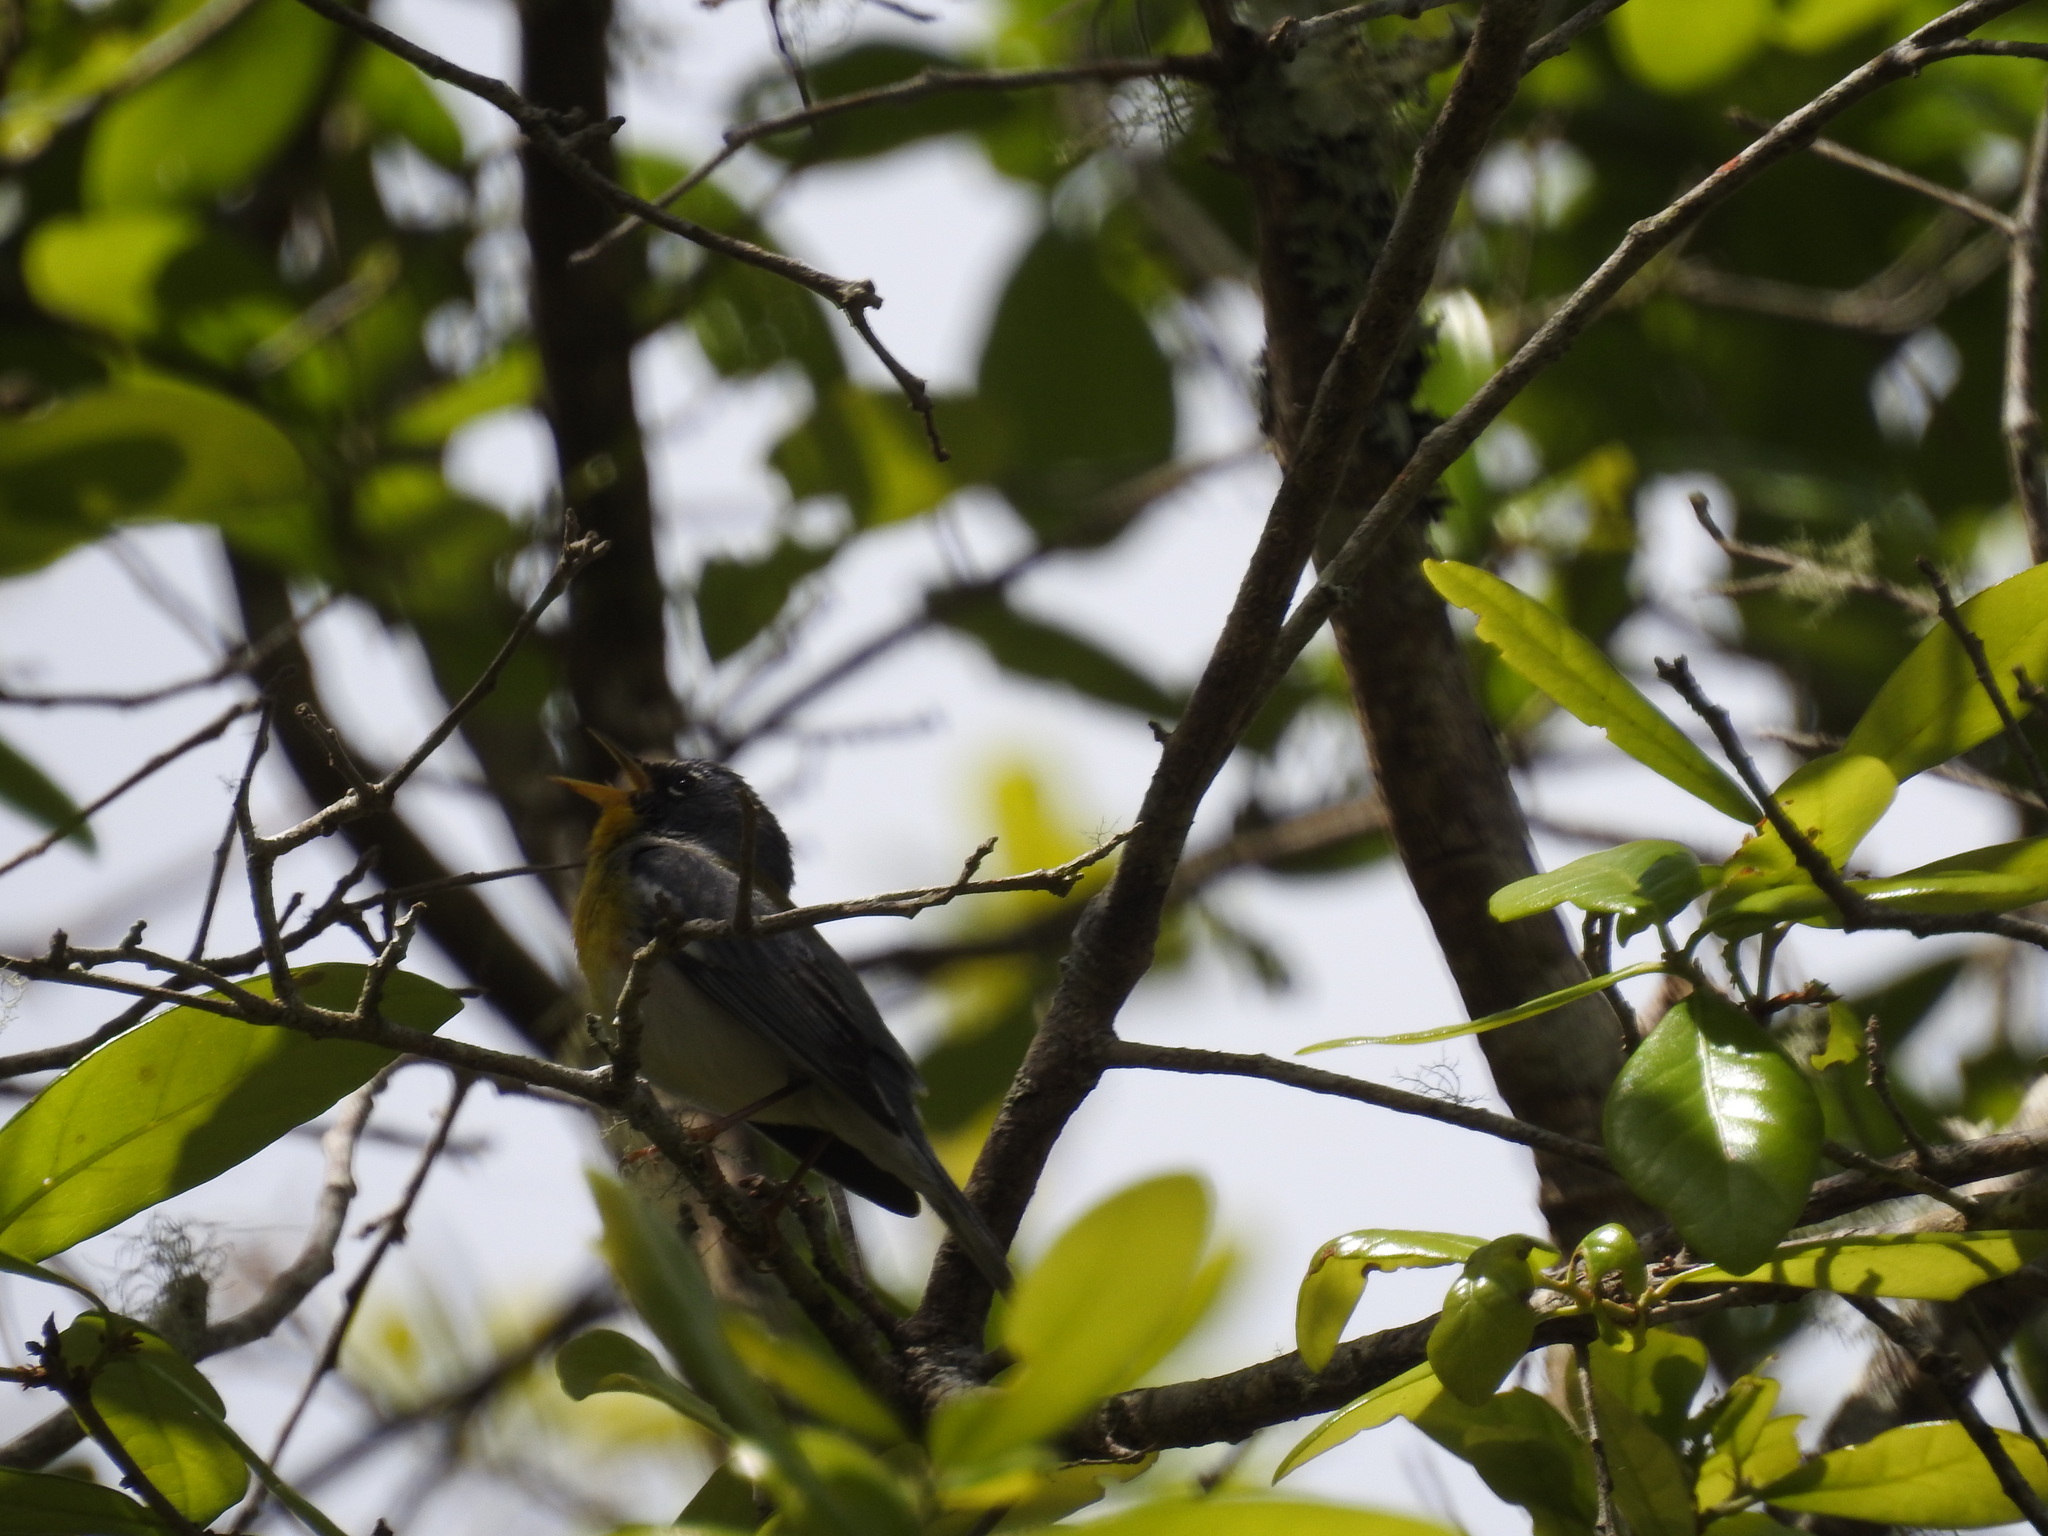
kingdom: Animalia
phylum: Chordata
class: Aves
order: Passeriformes
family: Parulidae
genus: Setophaga
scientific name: Setophaga americana
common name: Northern parula
